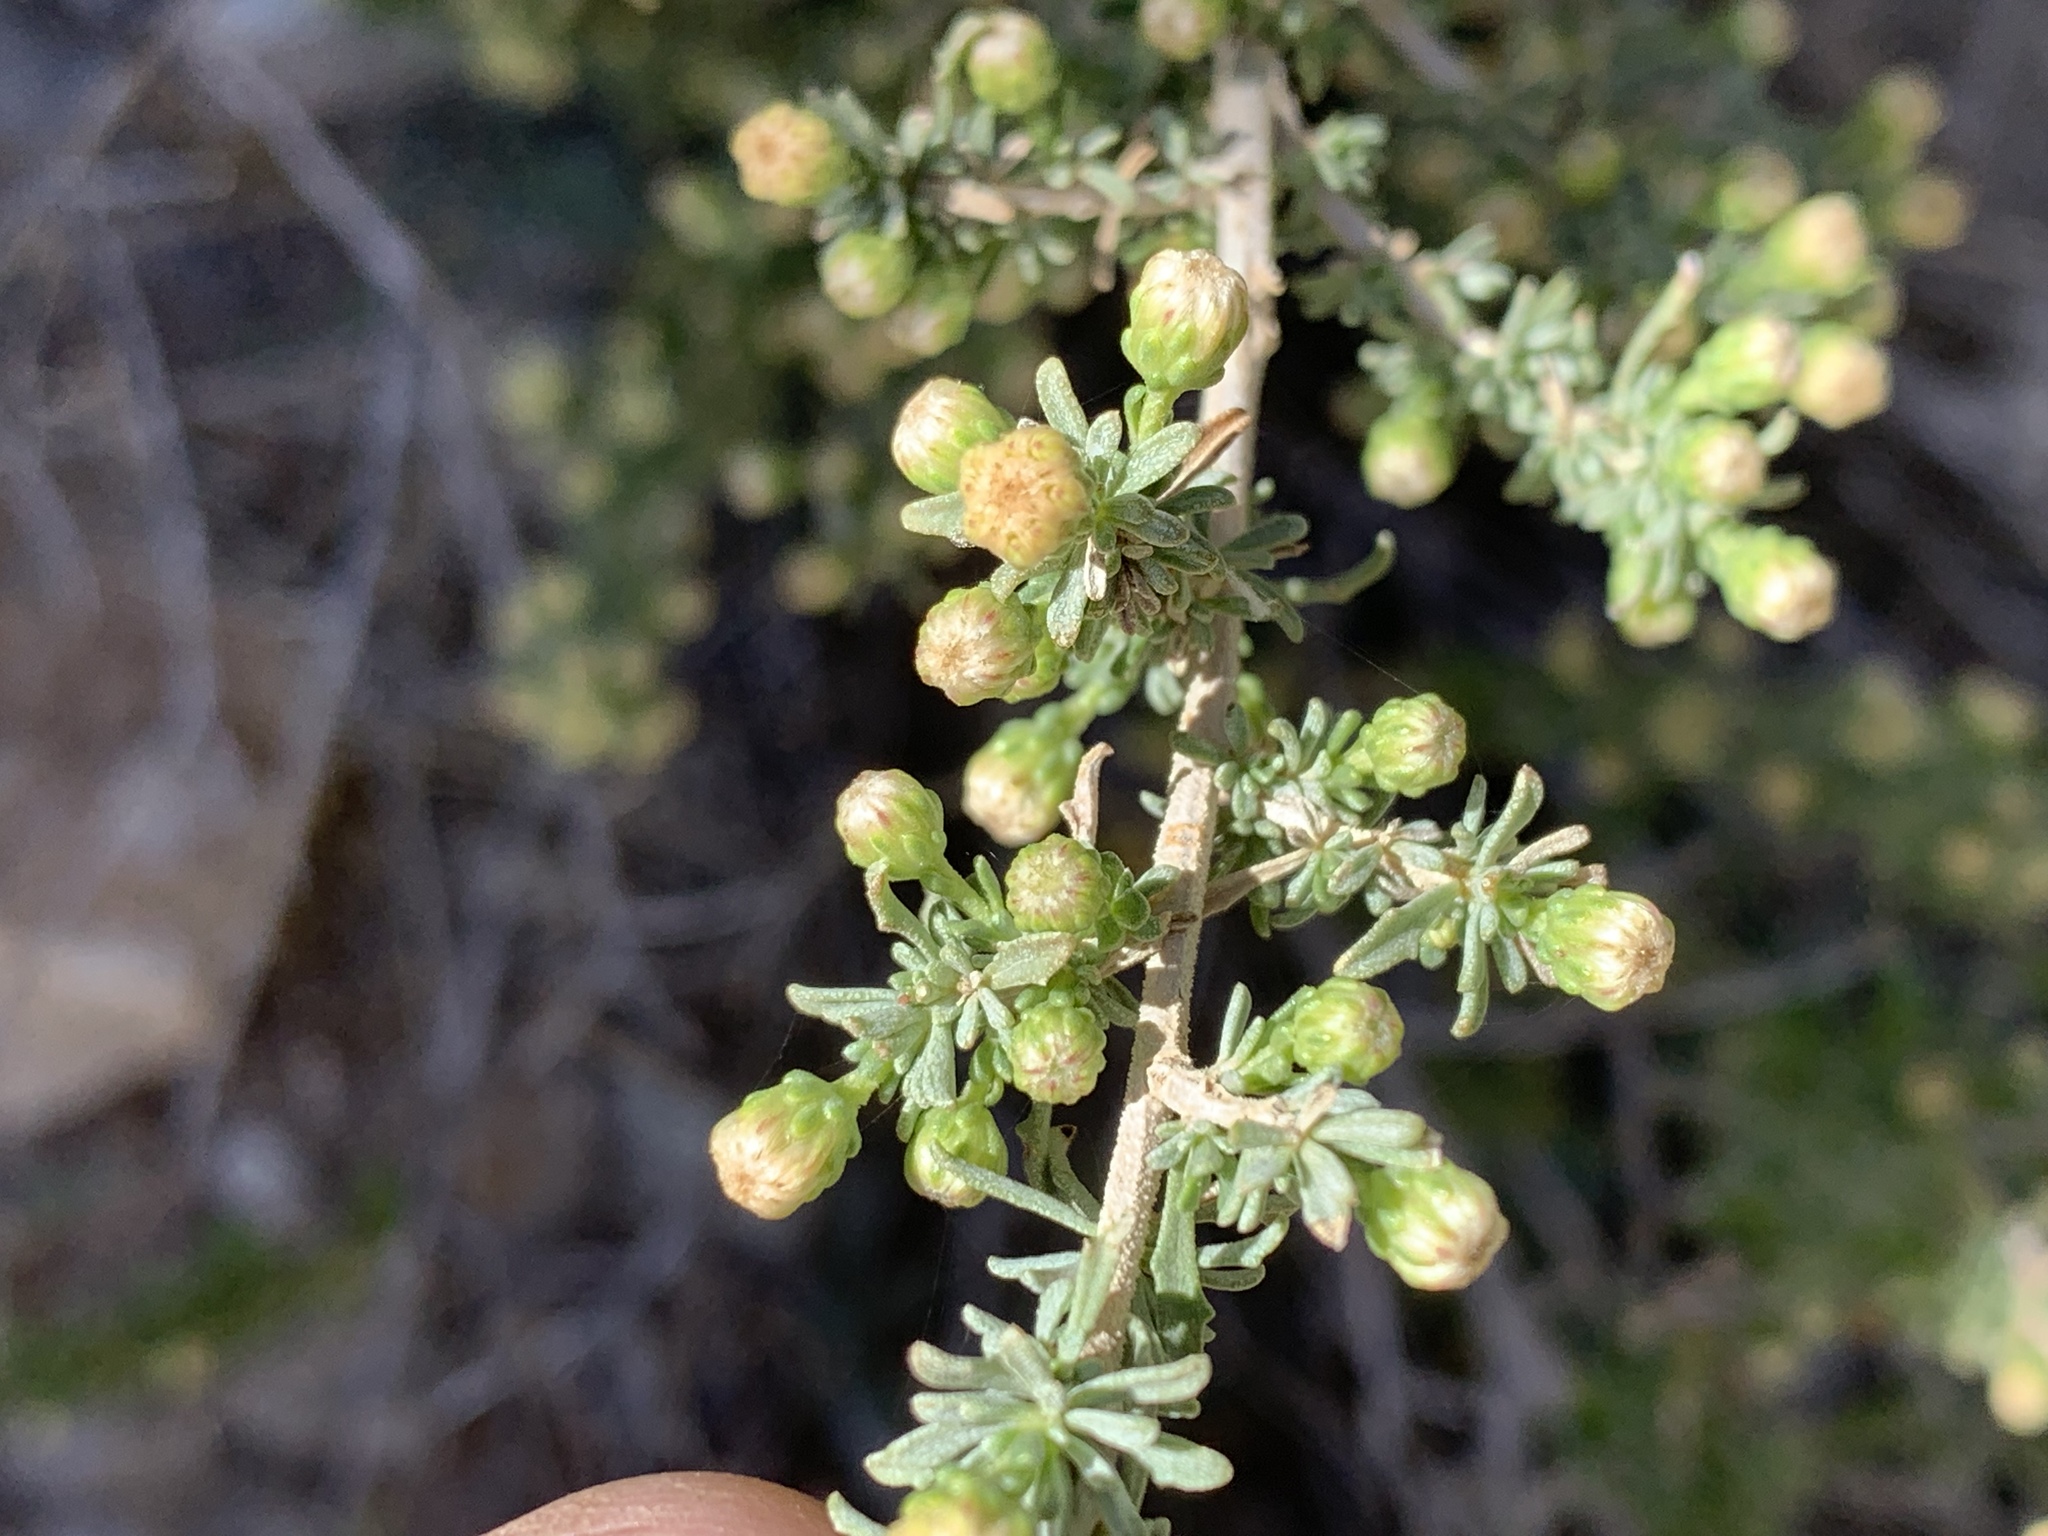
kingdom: Plantae
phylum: Tracheophyta
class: Magnoliopsida
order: Asterales
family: Asteraceae
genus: Baccharis
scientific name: Baccharis pteronioides
